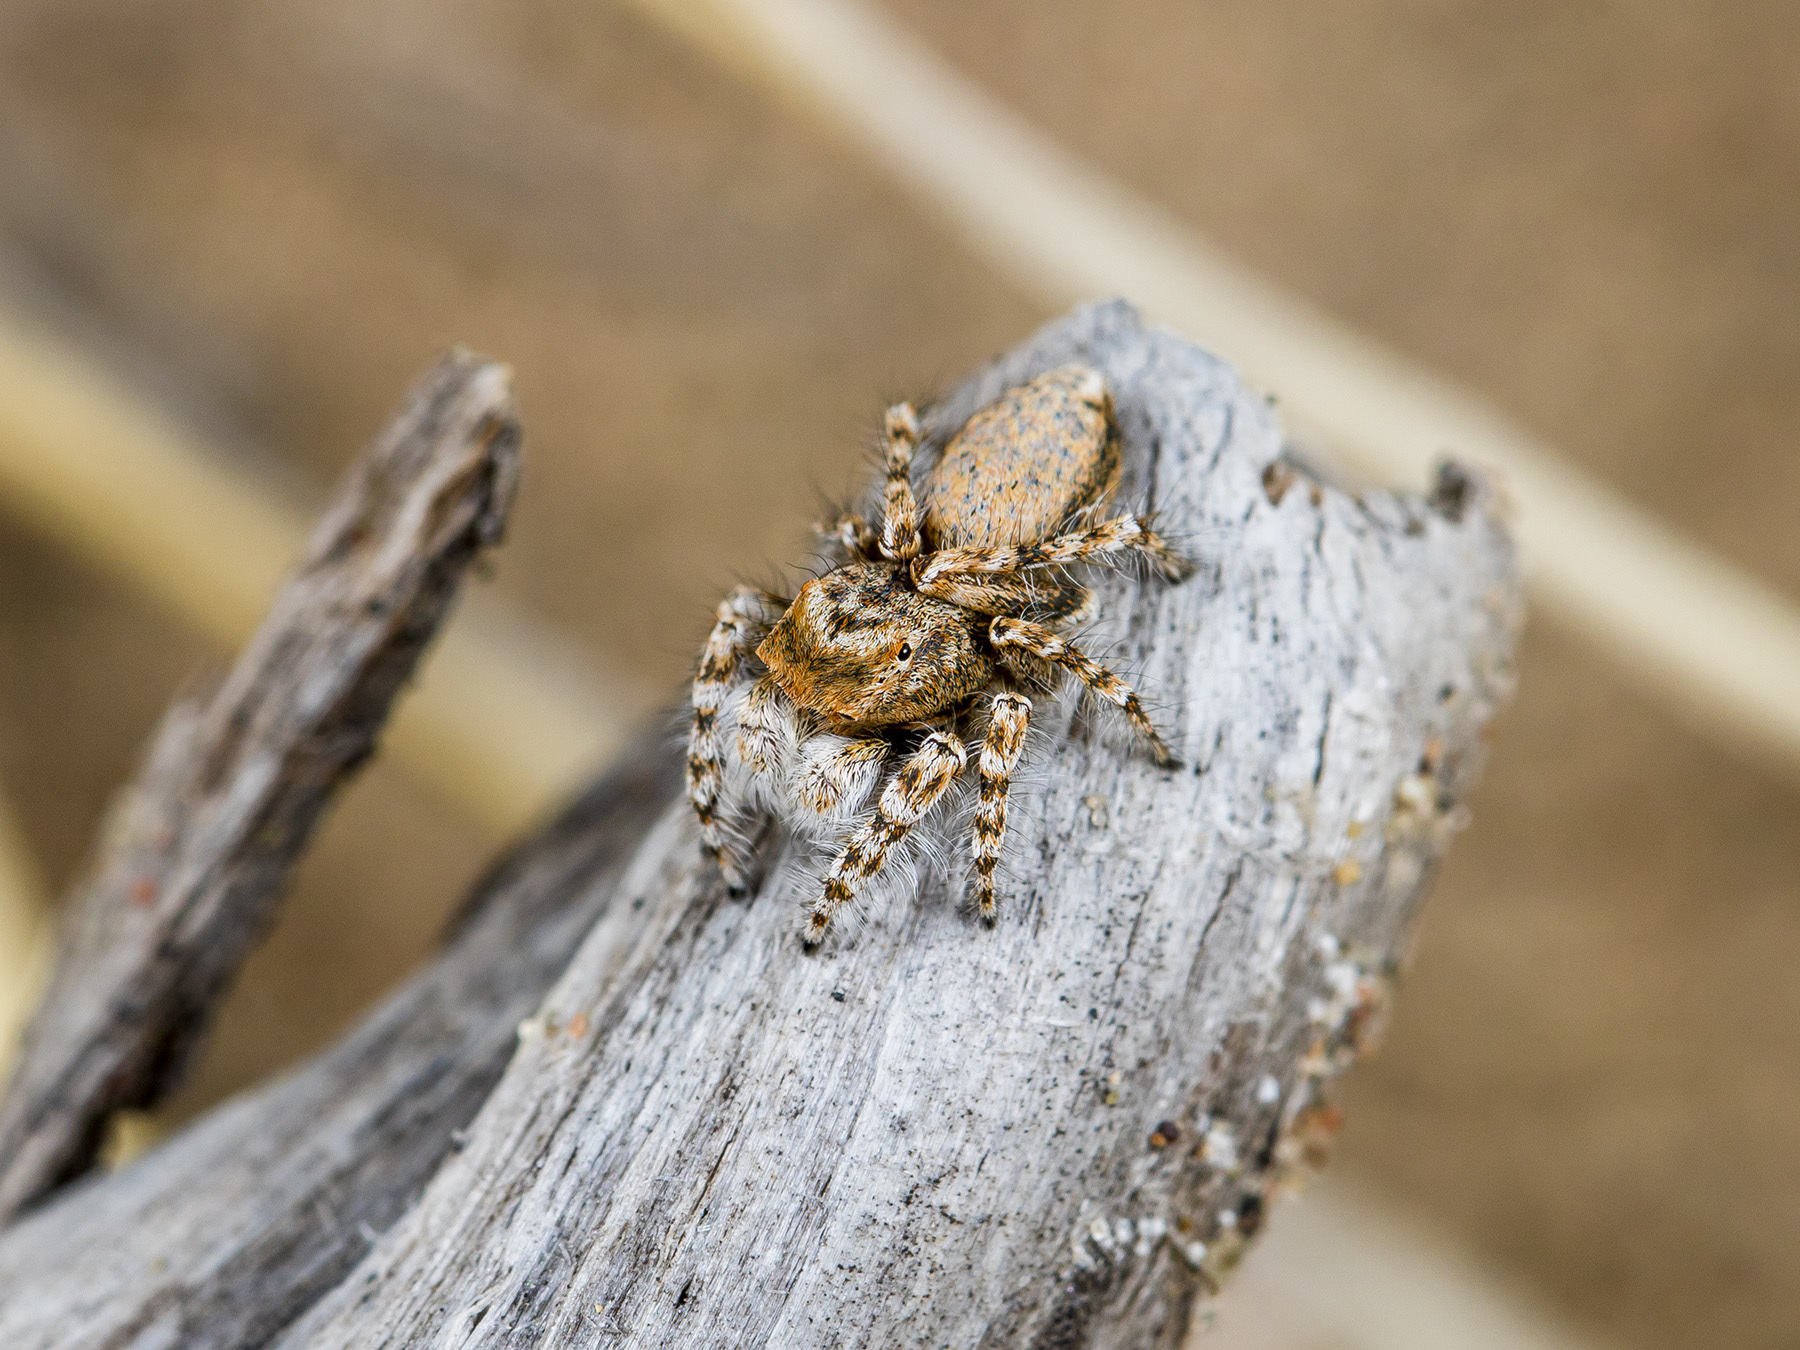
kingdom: Animalia
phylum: Arthropoda
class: Arachnida
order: Araneae
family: Salticidae
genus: Yllenus
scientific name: Yllenus uiguricus
